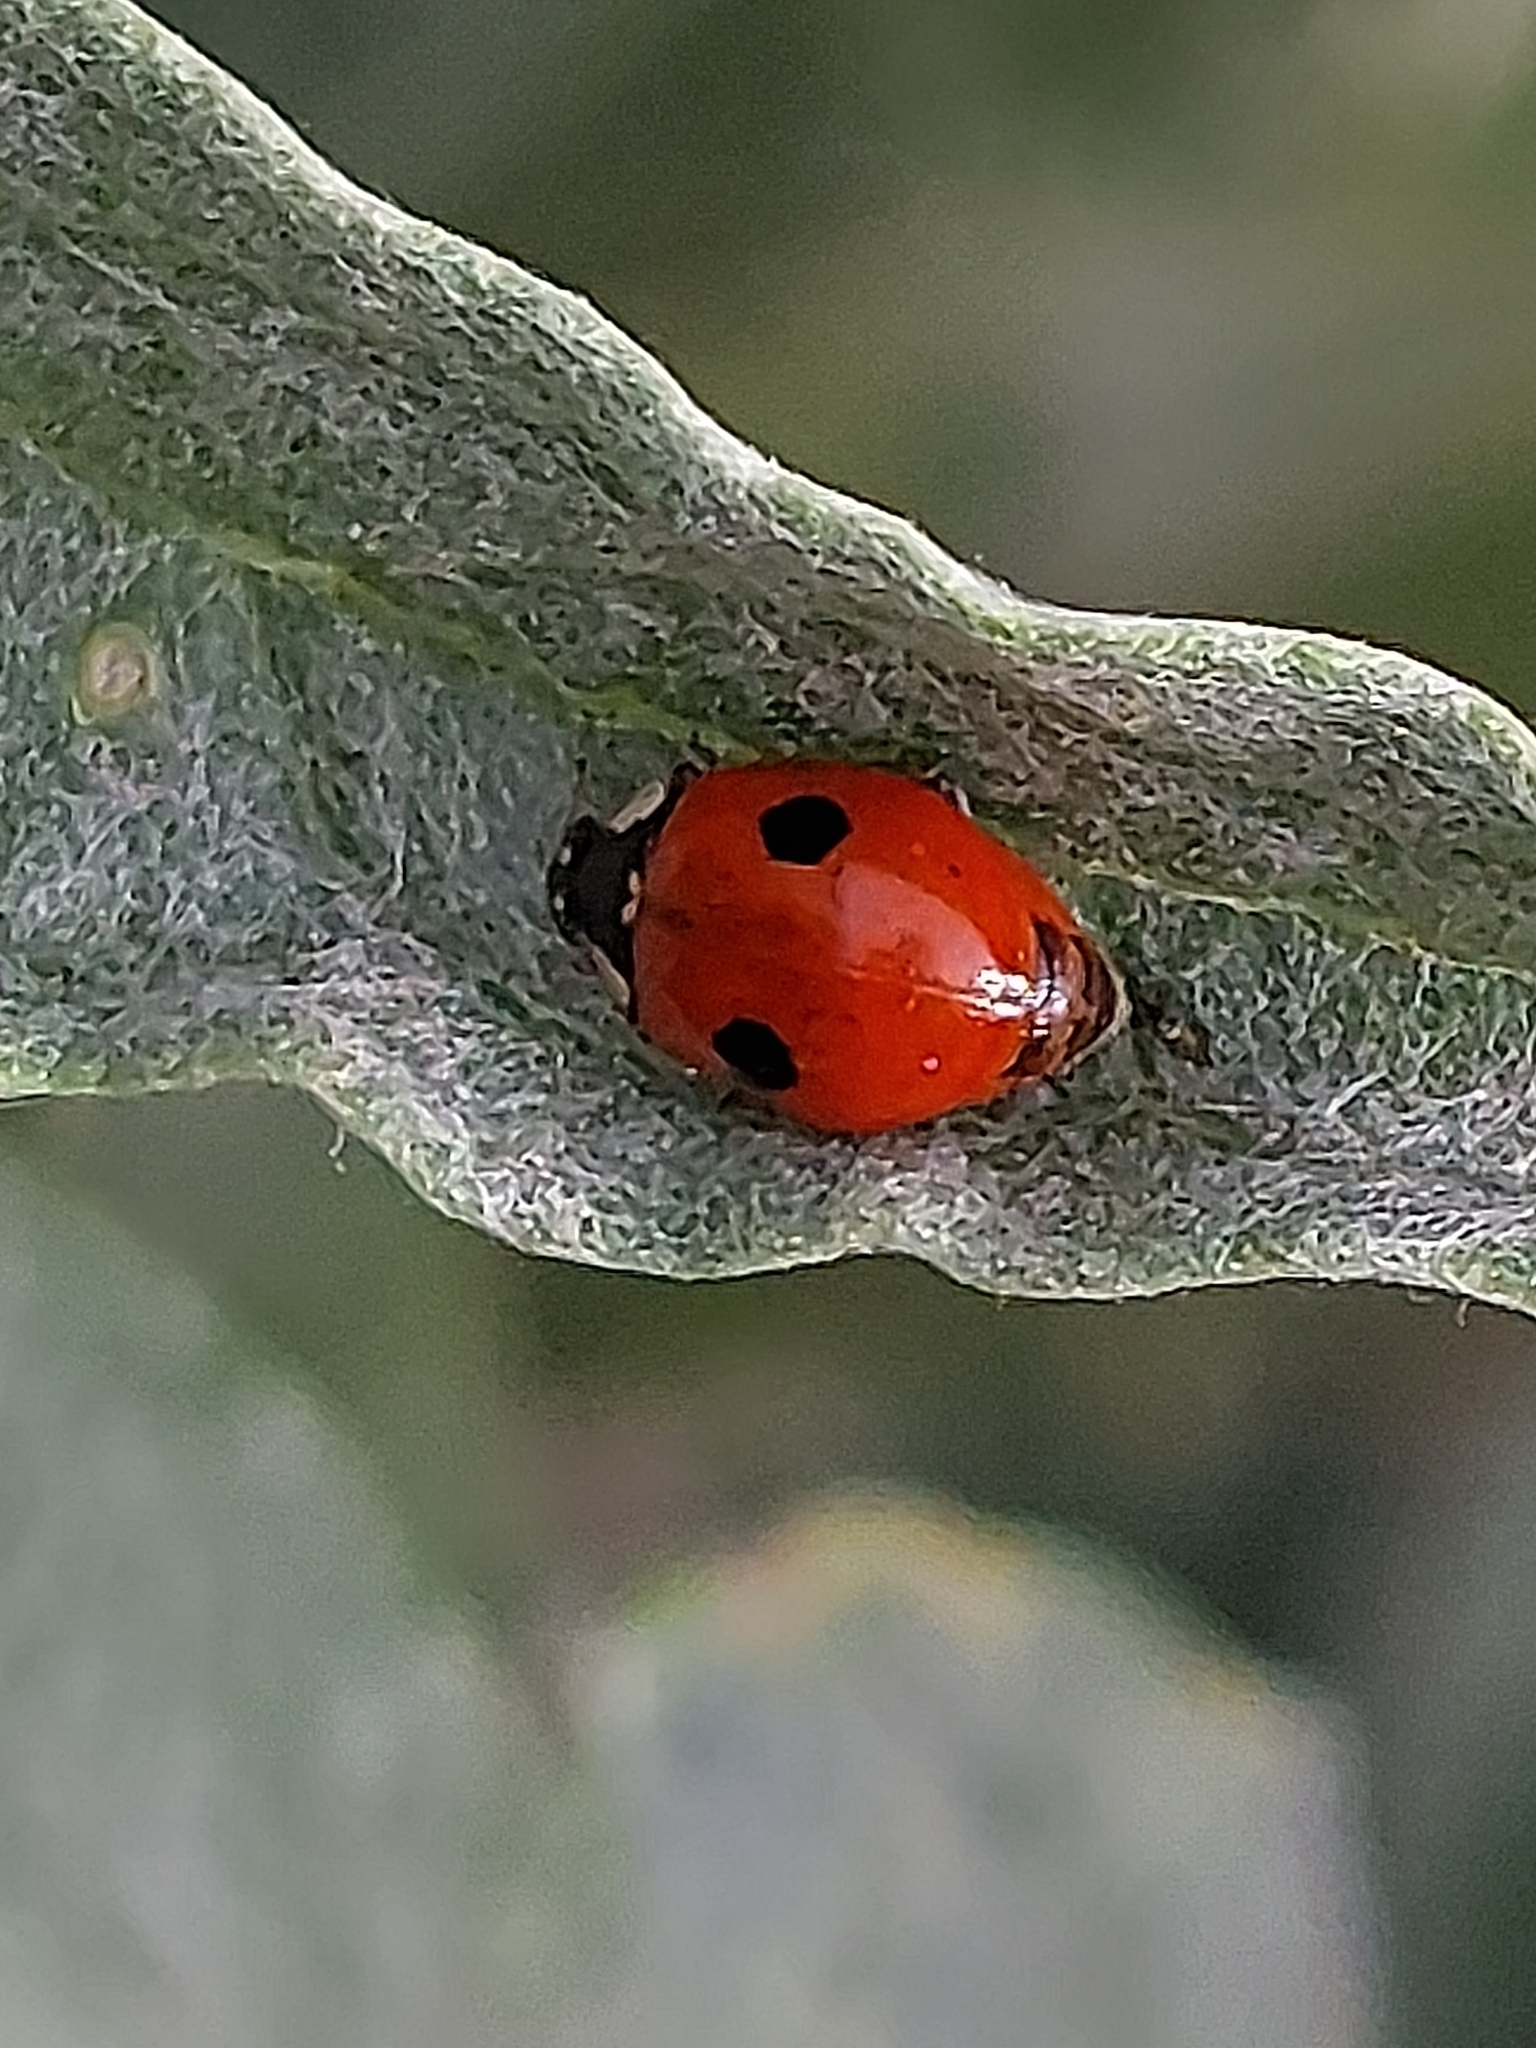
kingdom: Animalia
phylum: Arthropoda
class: Insecta
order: Coleoptera
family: Coccinellidae
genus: Adalia
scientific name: Adalia bipunctata
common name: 2-spot ladybird
